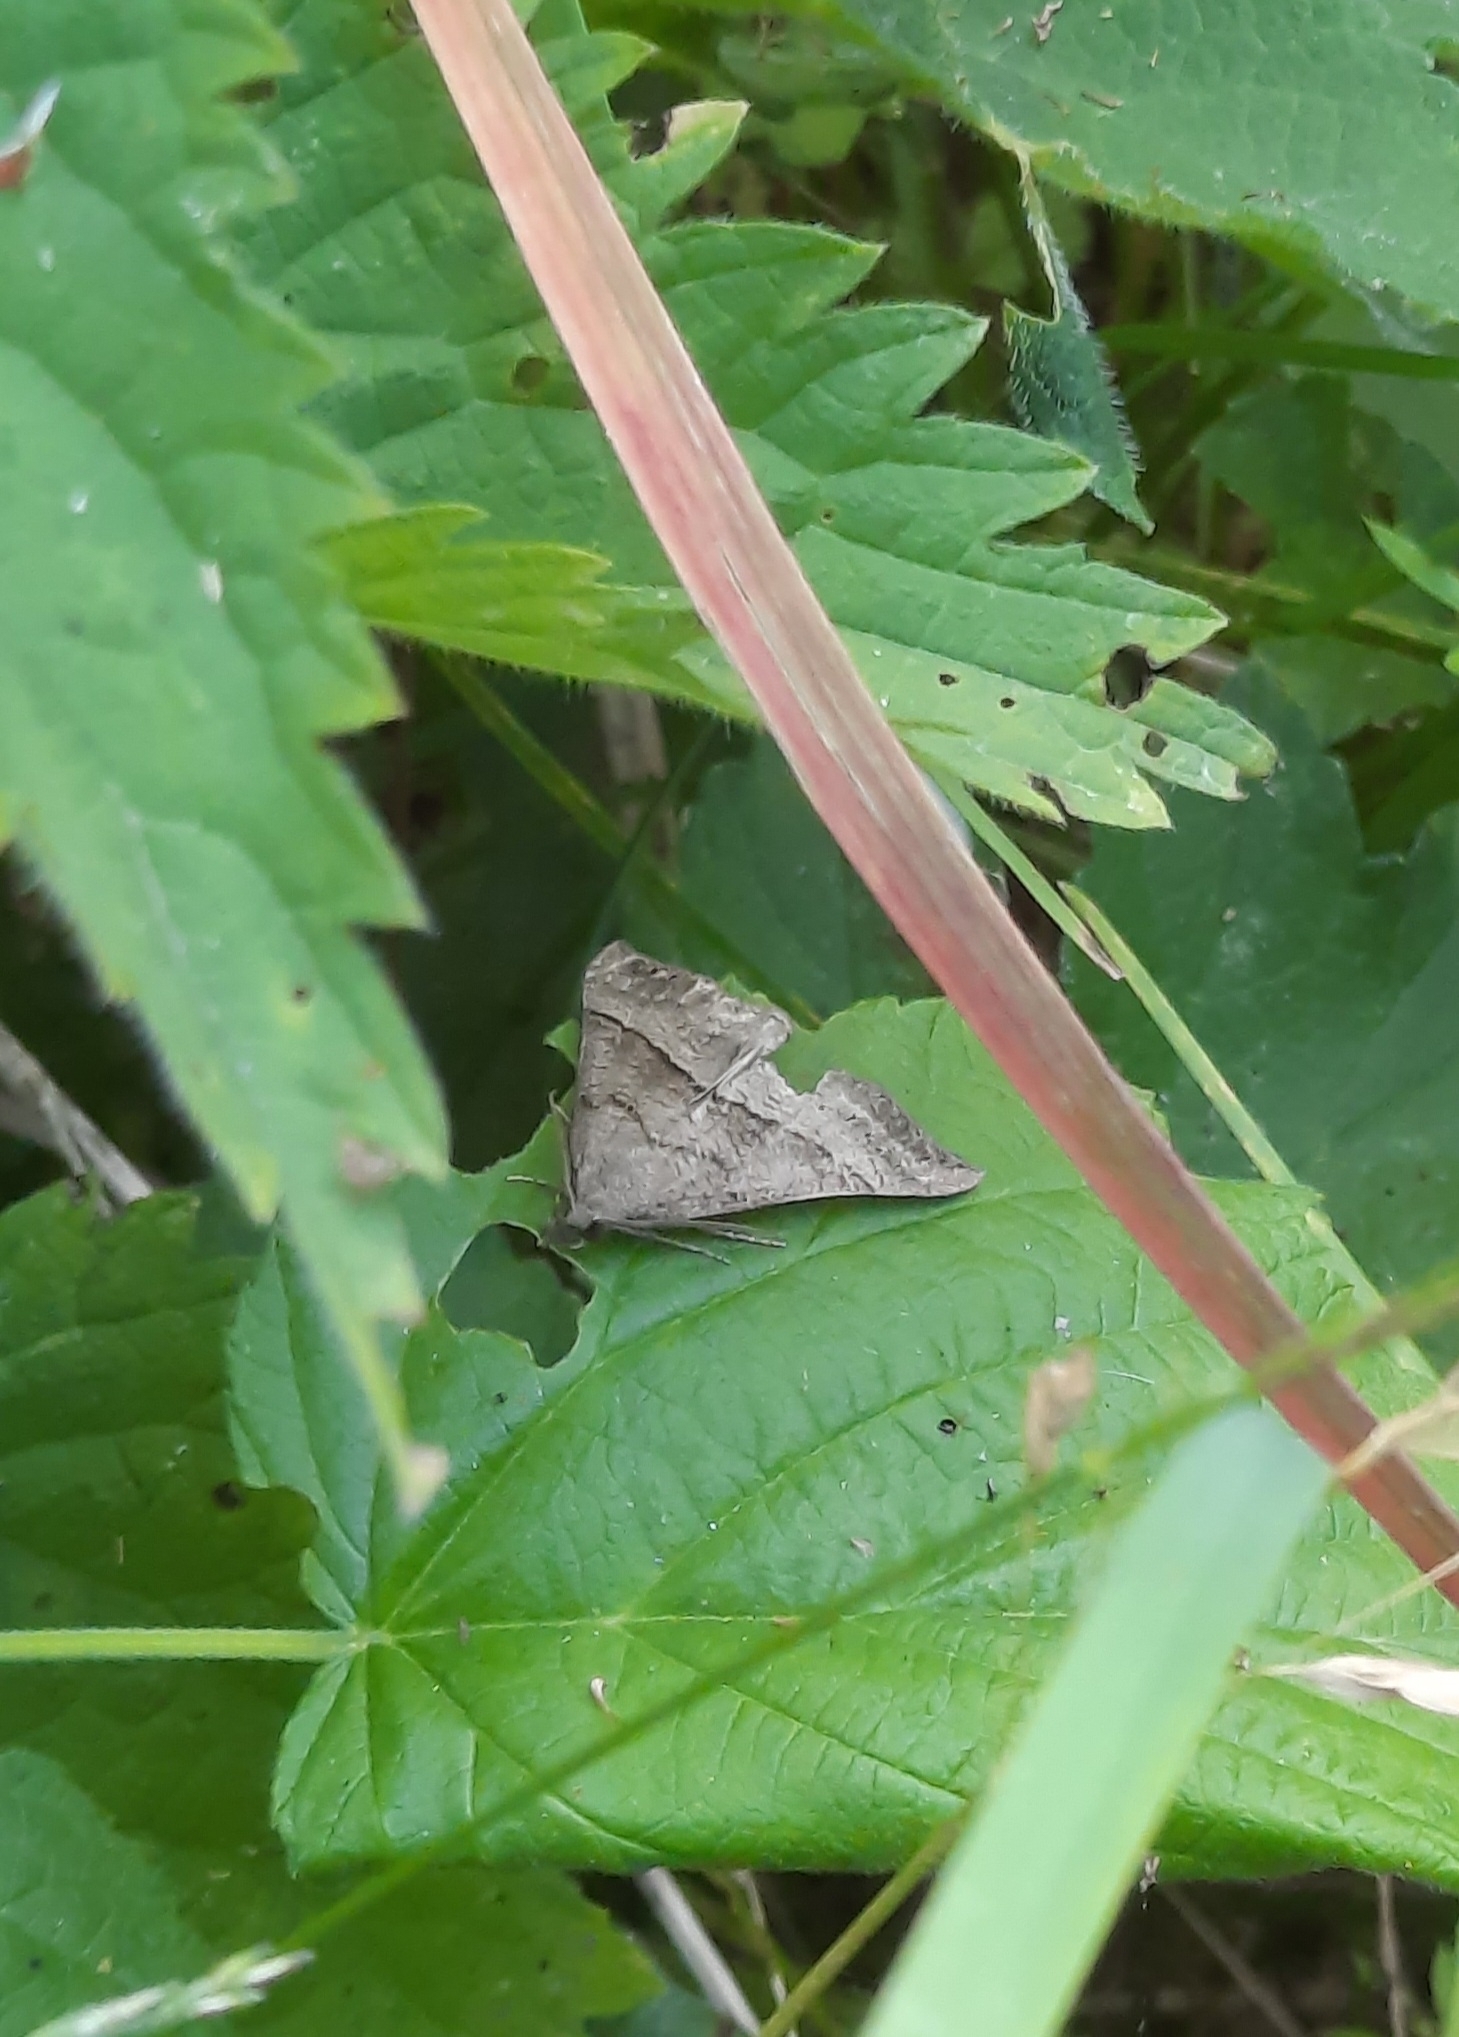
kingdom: Animalia
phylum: Arthropoda
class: Insecta
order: Lepidoptera
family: Erebidae
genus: Hypena
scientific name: Hypena proboscidalis
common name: Snout
